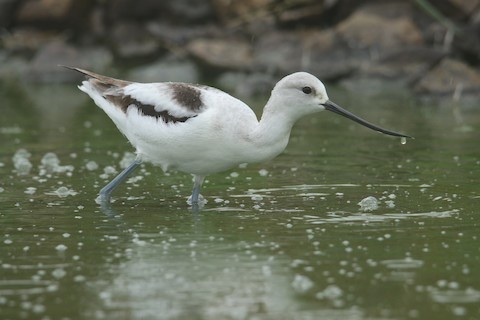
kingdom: Animalia
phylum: Chordata
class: Aves
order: Charadriiformes
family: Recurvirostridae
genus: Recurvirostra
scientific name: Recurvirostra americana
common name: American avocet
